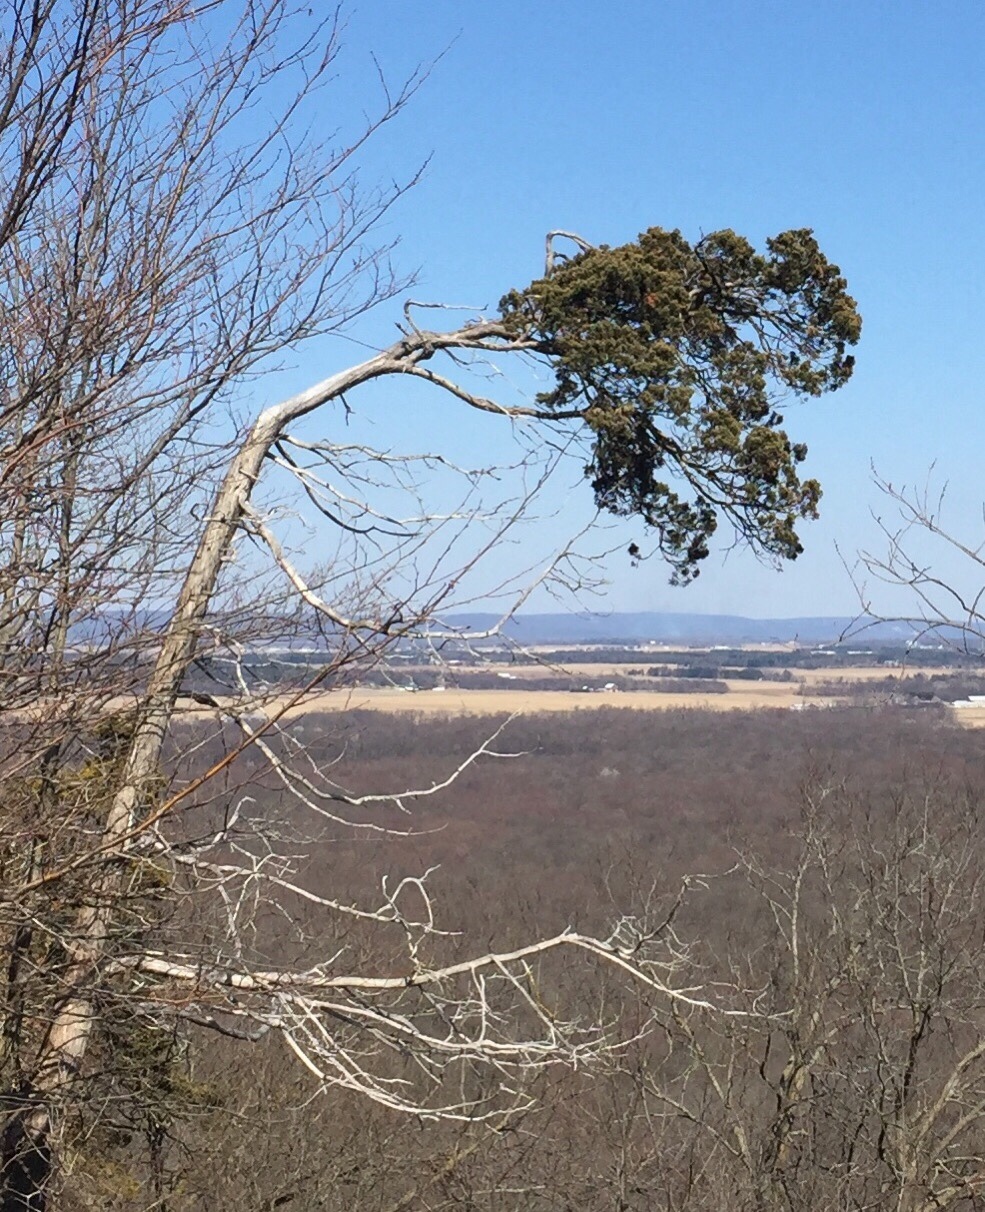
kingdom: Plantae
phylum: Tracheophyta
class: Pinopsida
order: Pinales
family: Cupressaceae
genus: Juniperus
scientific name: Juniperus virginiana
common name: Red juniper
